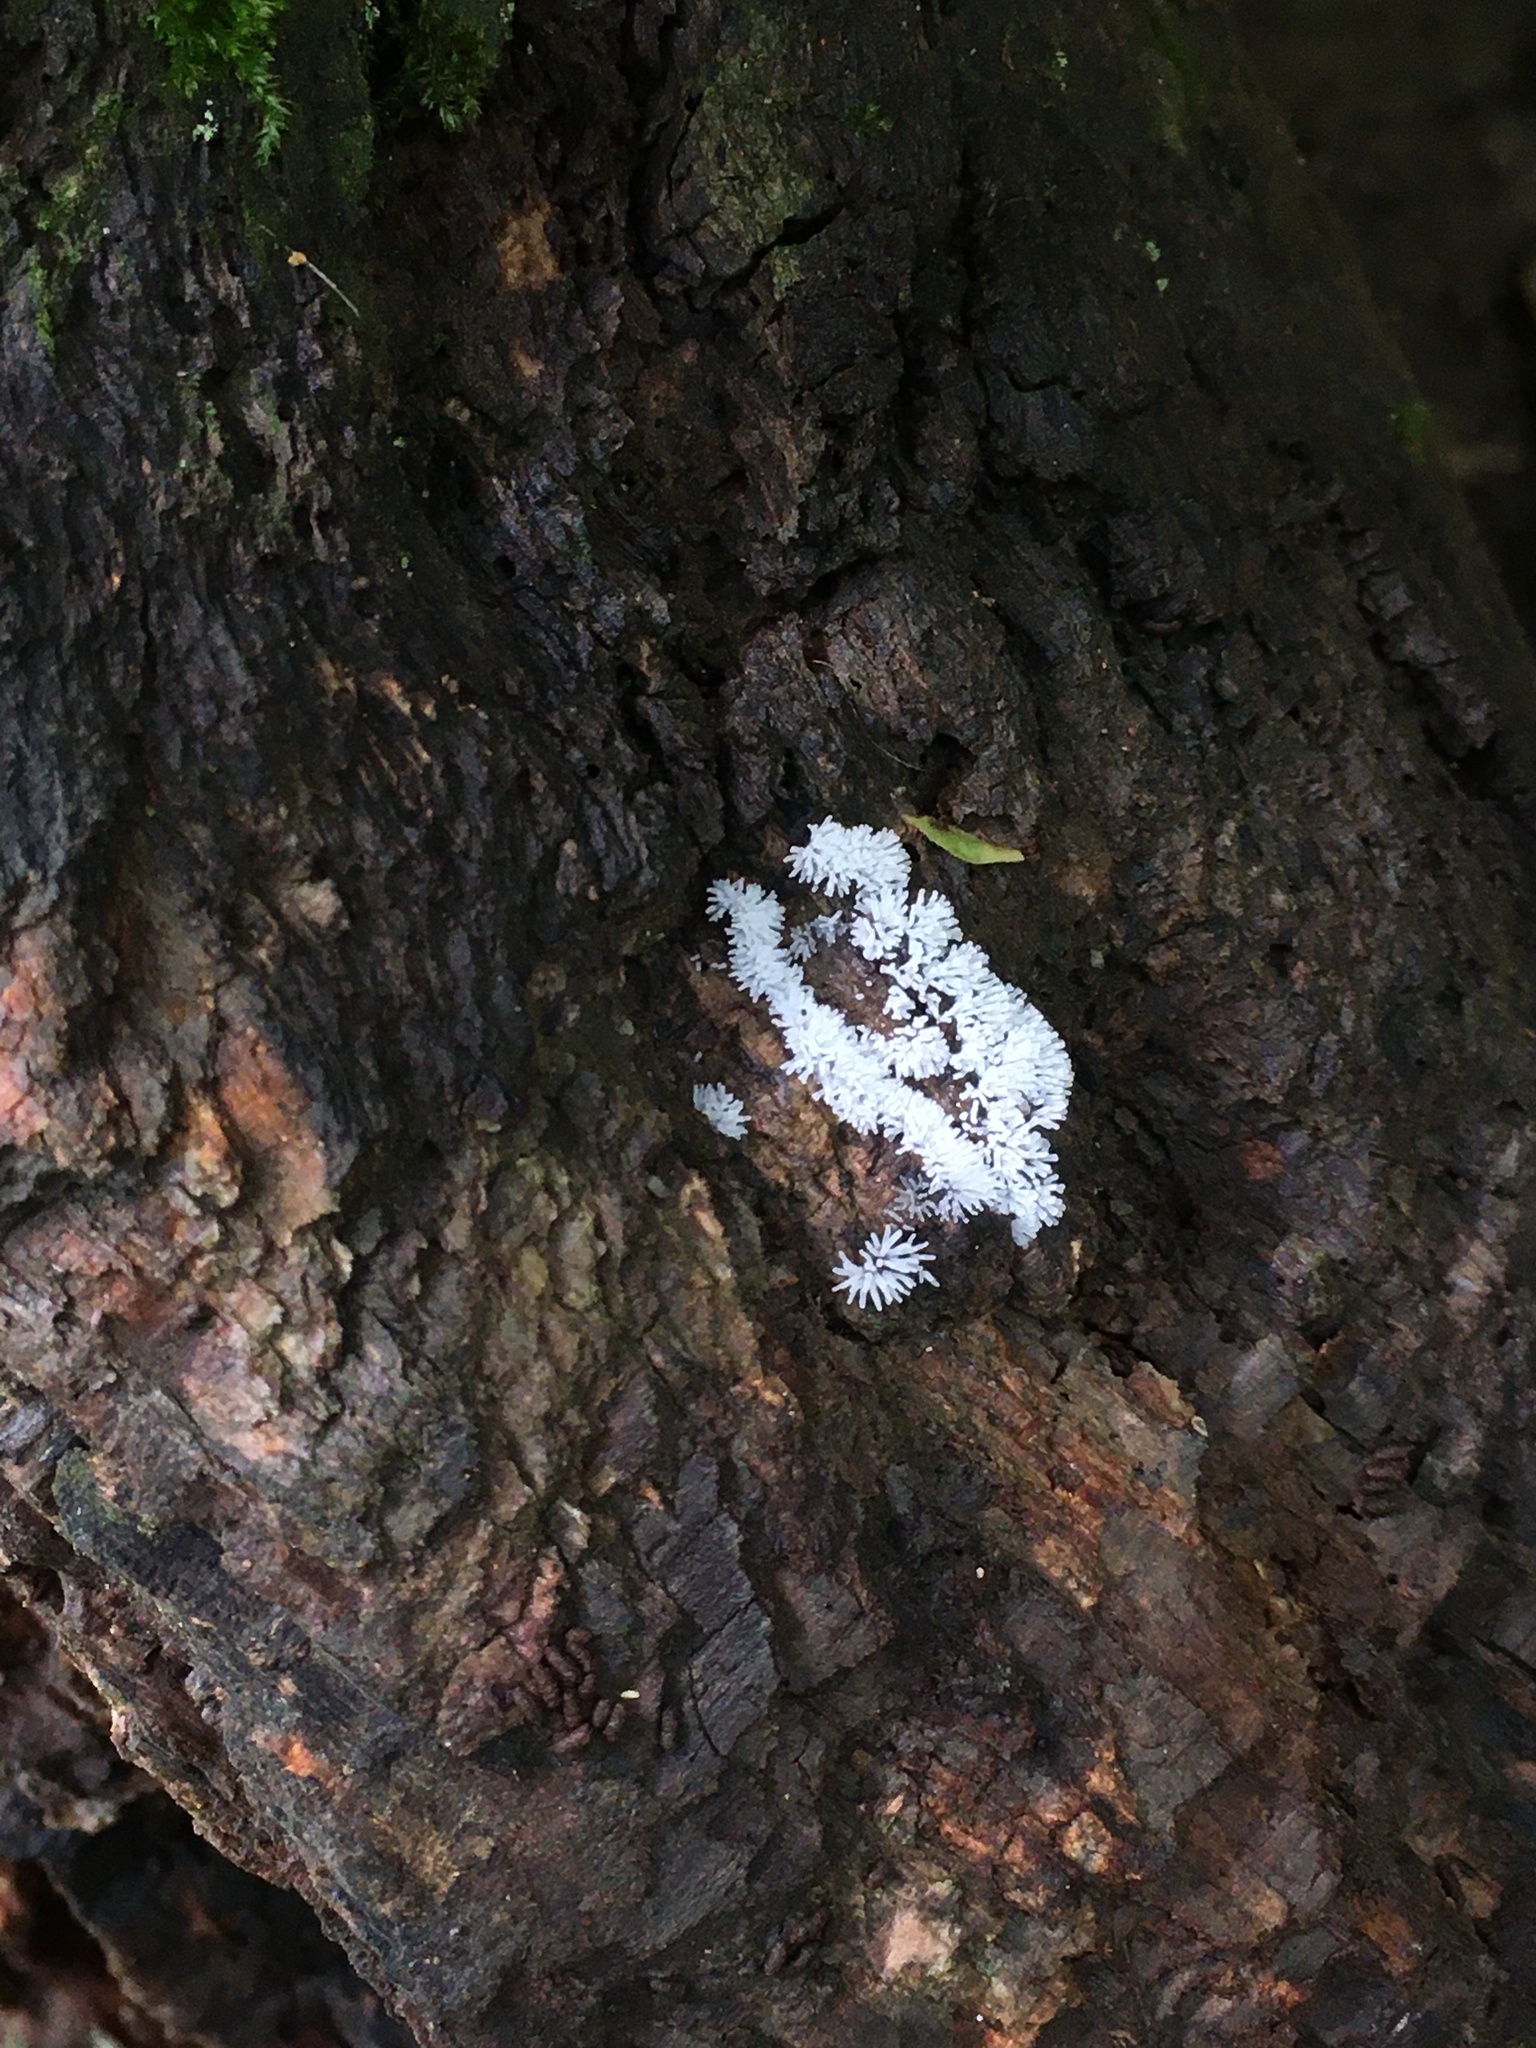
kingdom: Protozoa
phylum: Mycetozoa
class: Protosteliomycetes
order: Ceratiomyxales
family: Ceratiomyxaceae
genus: Ceratiomyxa
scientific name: Ceratiomyxa fruticulosa
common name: Honeycomb coral slime mold
